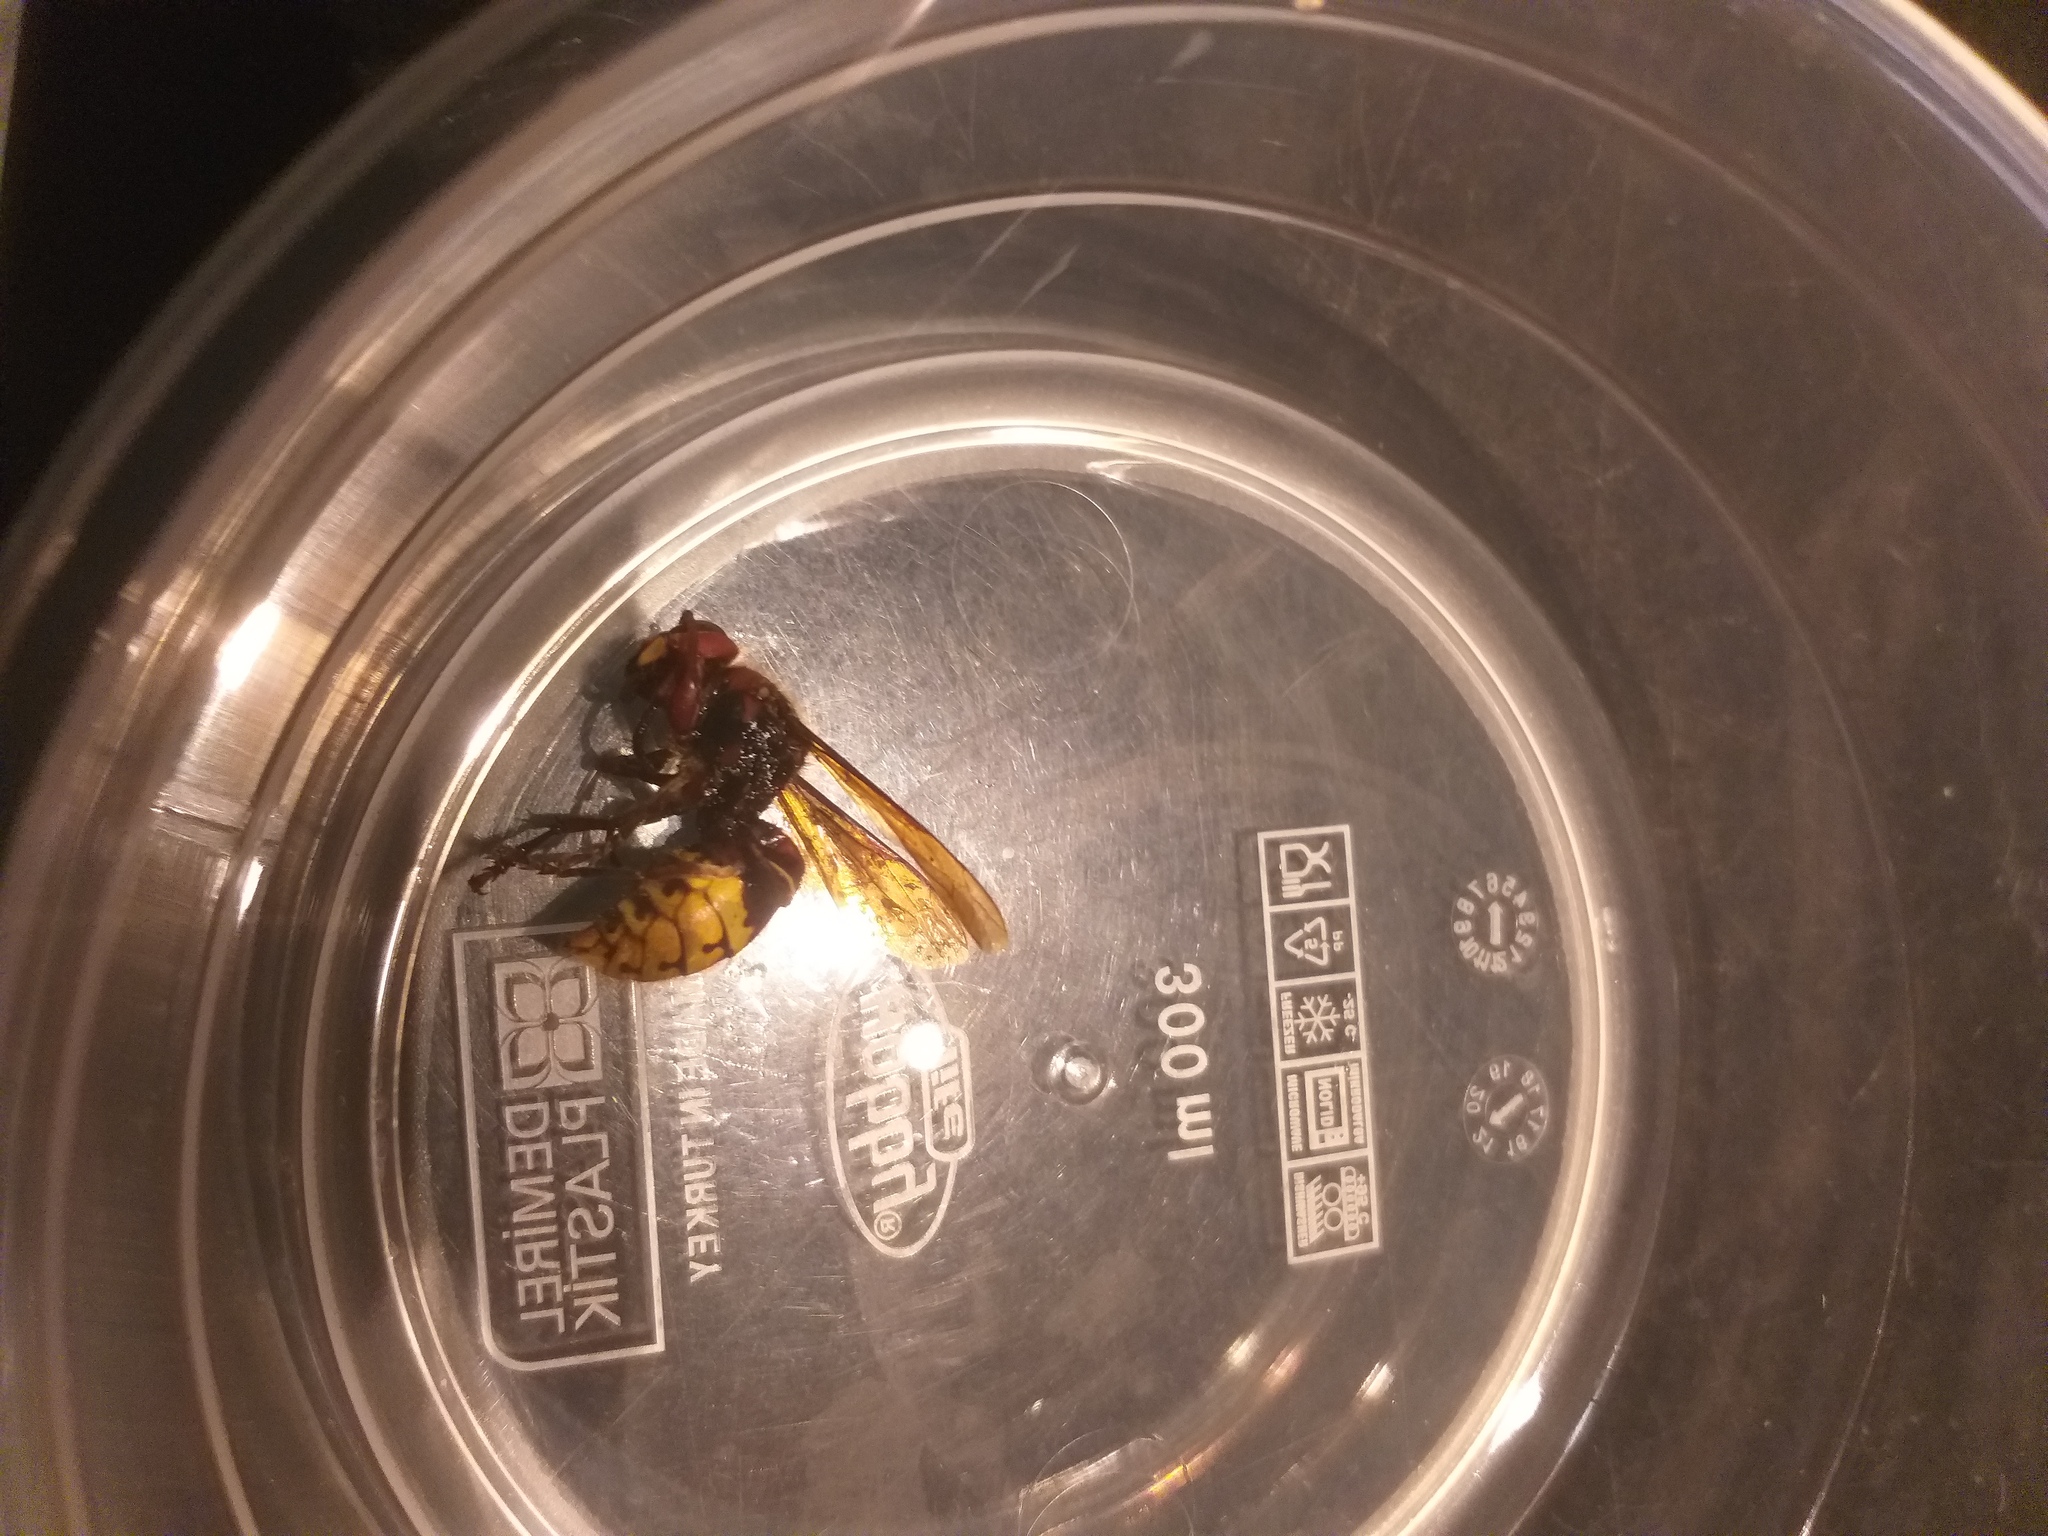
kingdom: Animalia
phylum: Arthropoda
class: Insecta
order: Hymenoptera
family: Vespidae
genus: Vespa
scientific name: Vespa crabro
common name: Hornet
